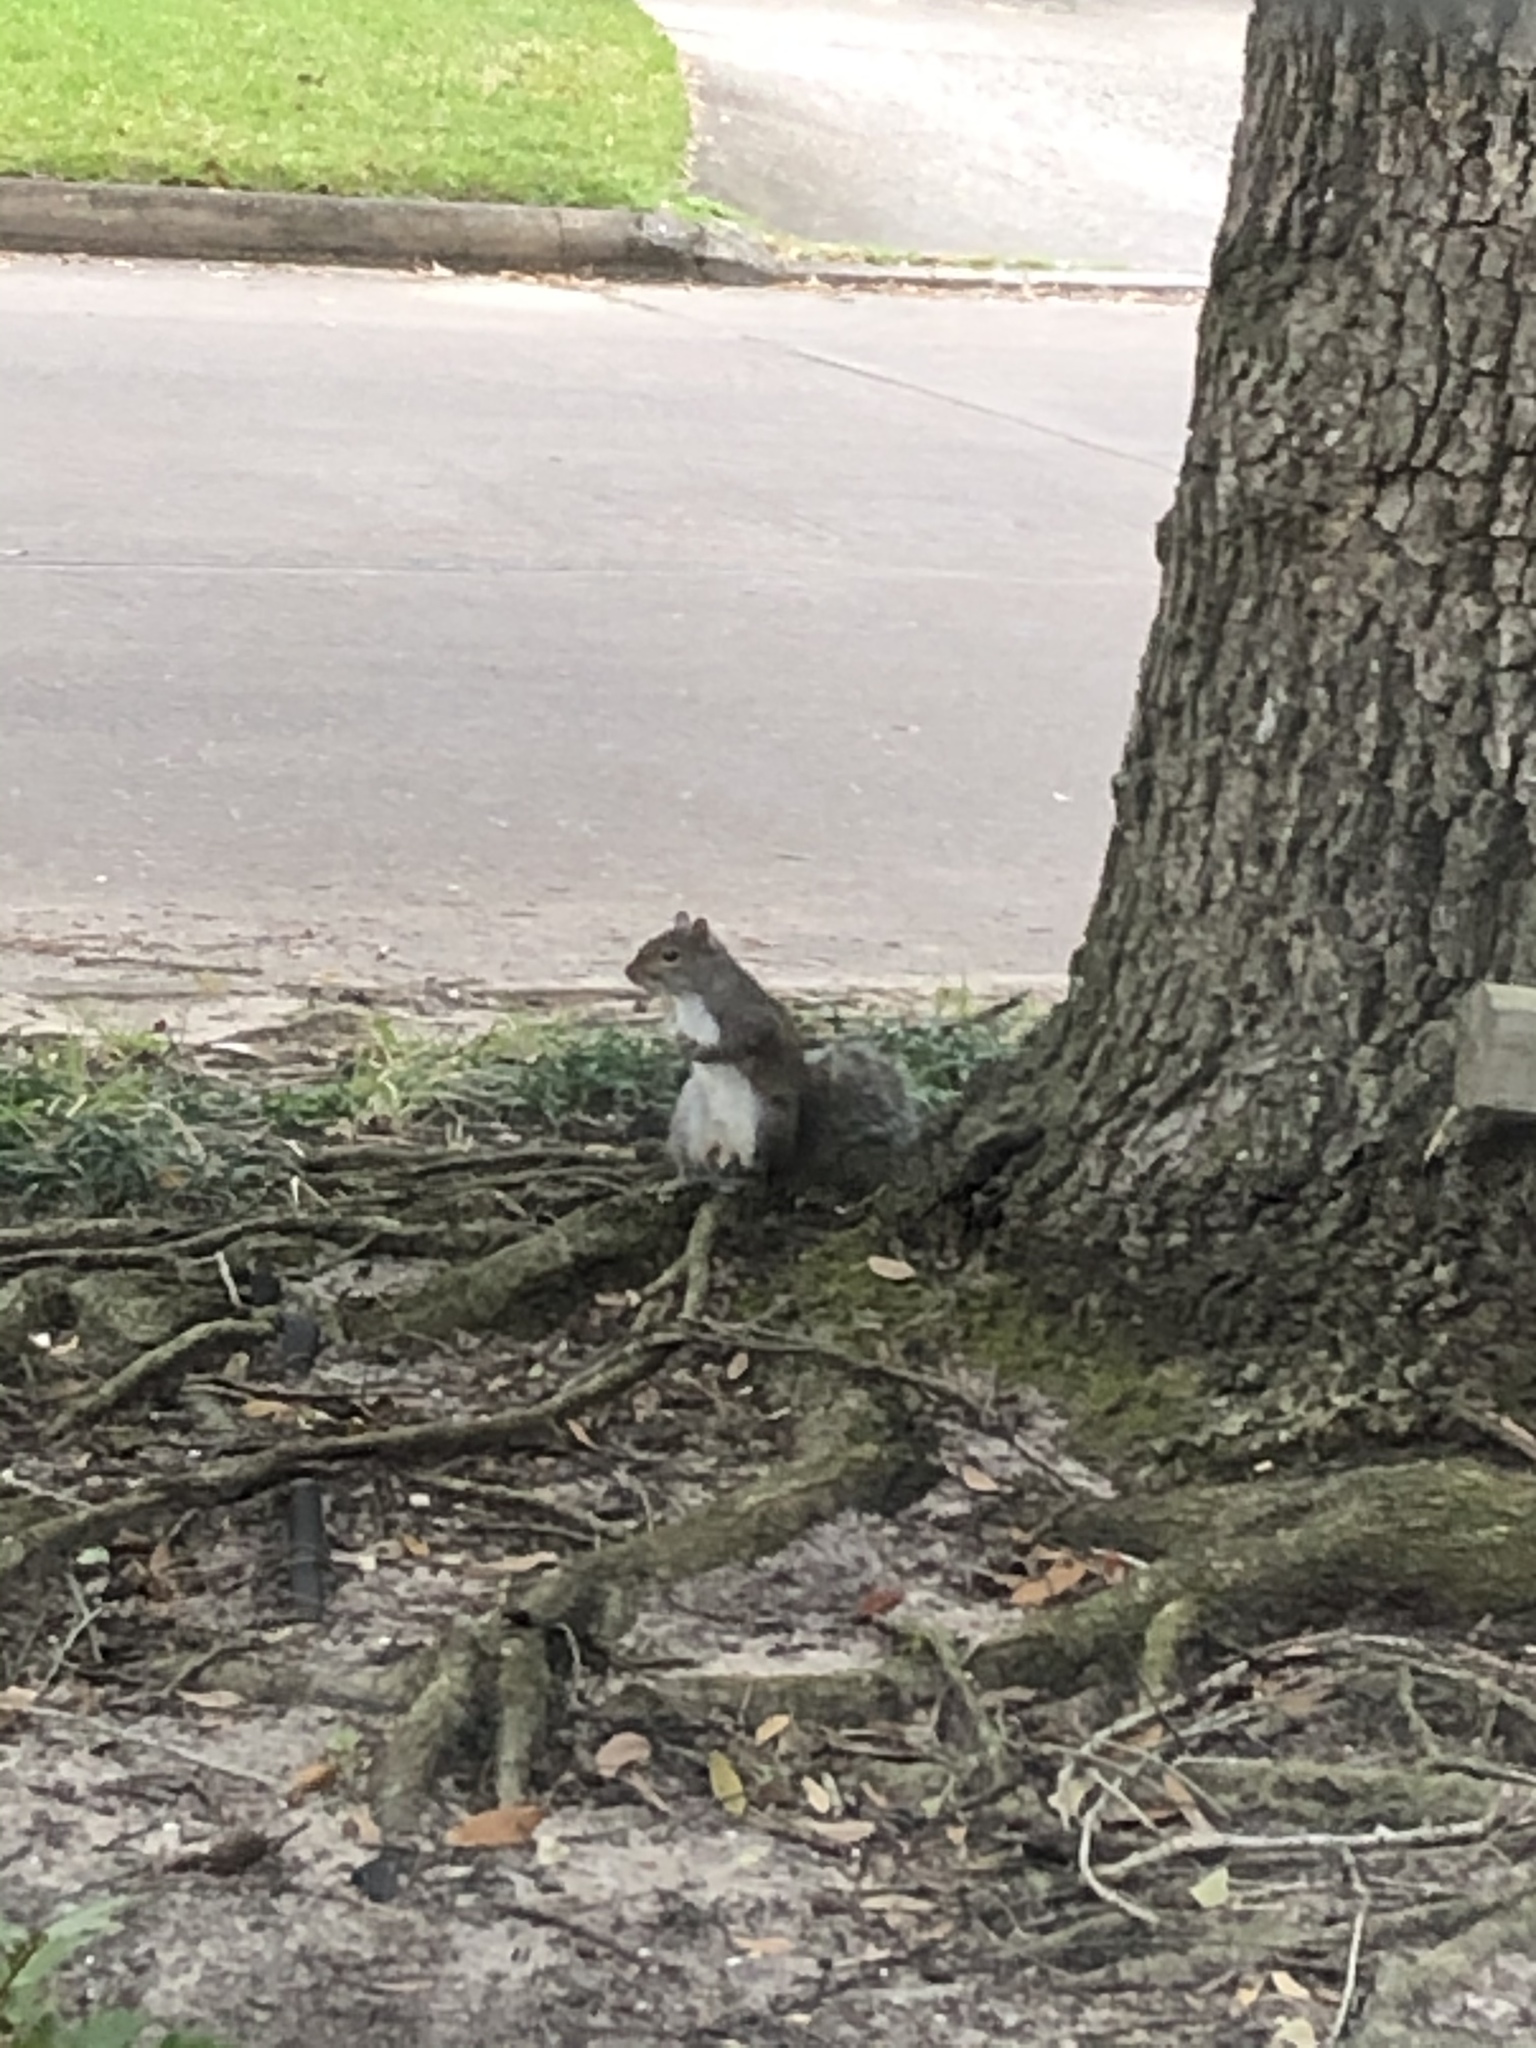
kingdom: Animalia
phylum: Chordata
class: Mammalia
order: Rodentia
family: Sciuridae
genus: Sciurus
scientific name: Sciurus carolinensis
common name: Eastern gray squirrel
